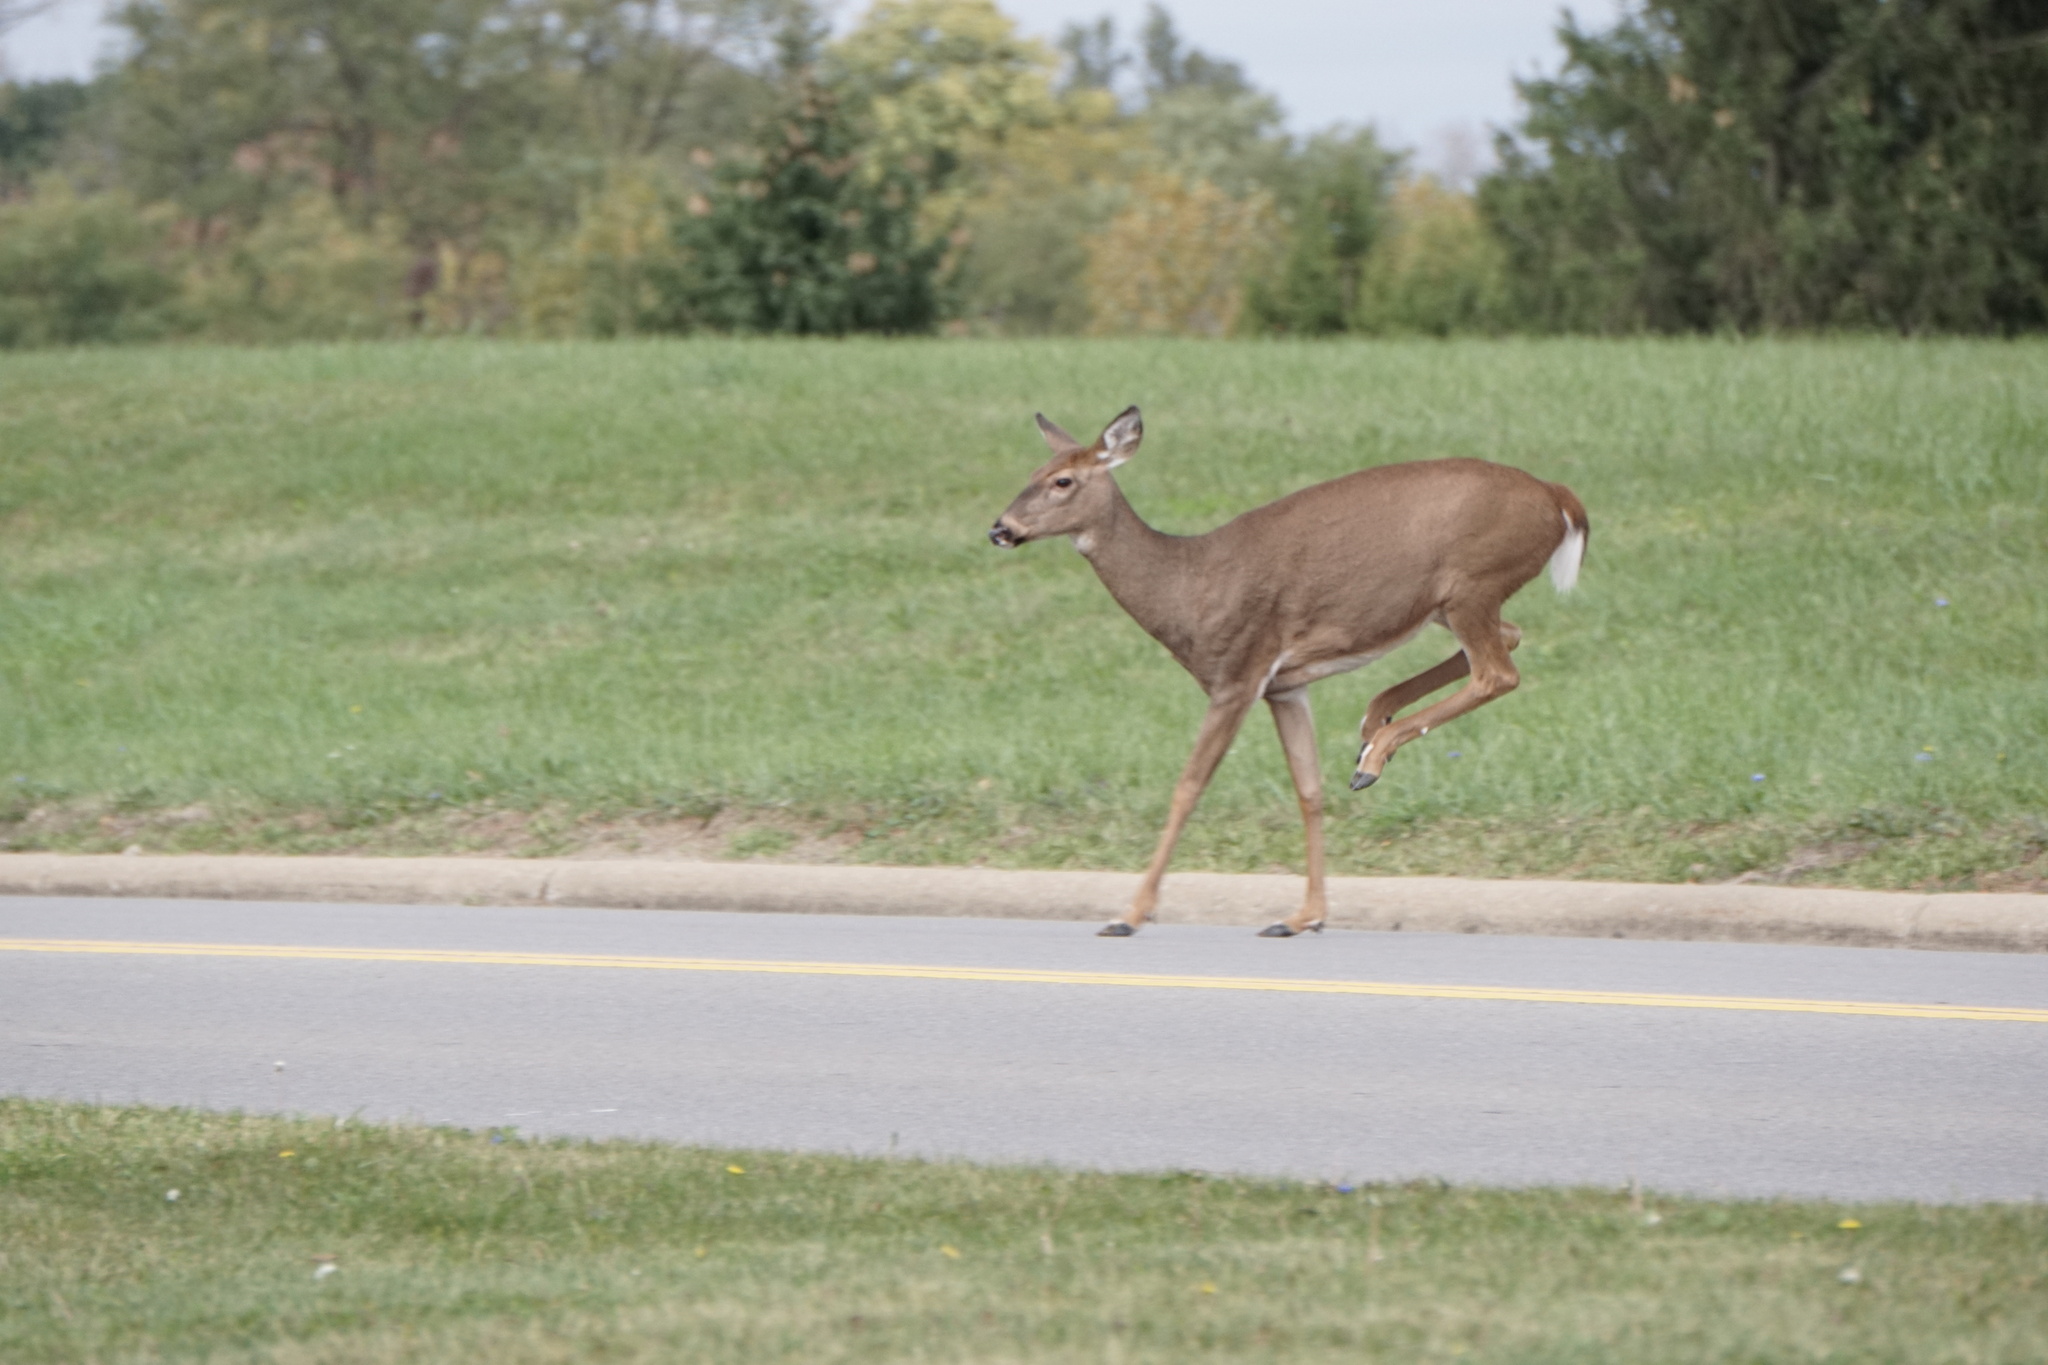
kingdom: Animalia
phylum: Chordata
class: Mammalia
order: Artiodactyla
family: Cervidae
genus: Odocoileus
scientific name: Odocoileus virginianus
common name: White-tailed deer
